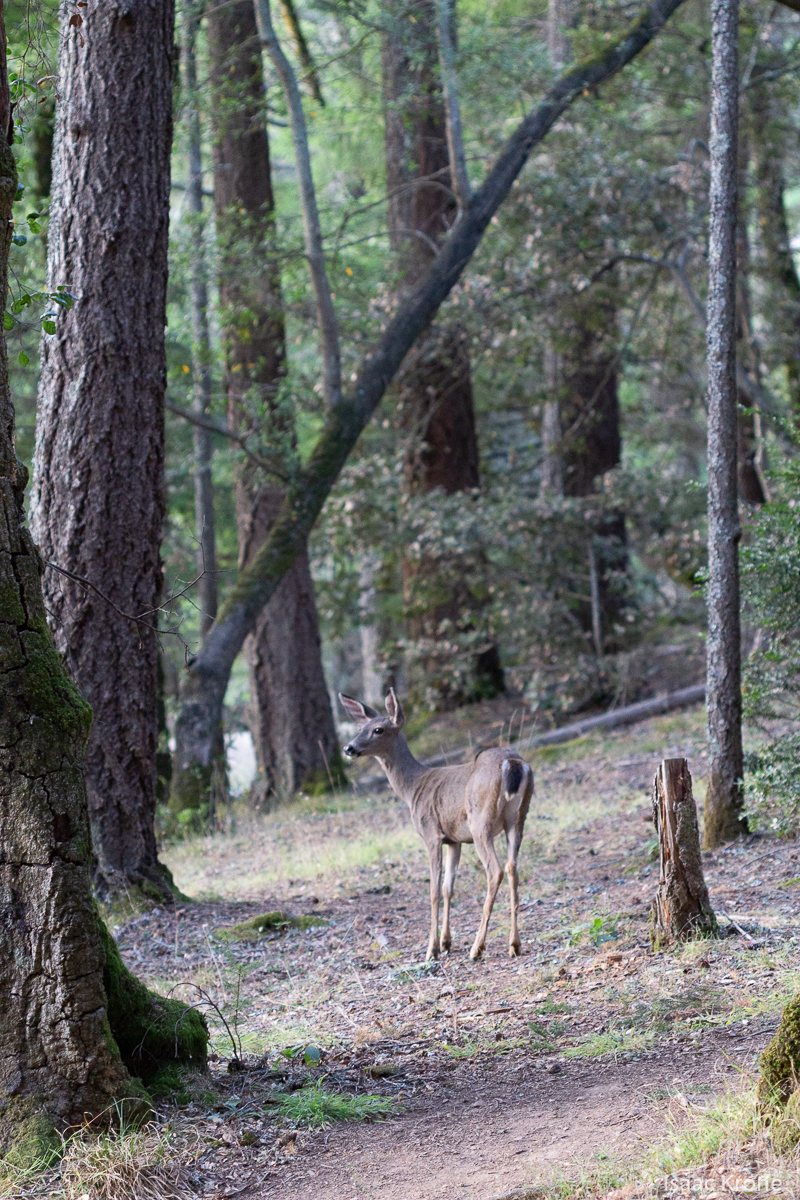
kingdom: Animalia
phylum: Chordata
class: Mammalia
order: Artiodactyla
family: Cervidae
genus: Odocoileus
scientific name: Odocoileus hemionus
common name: Mule deer
